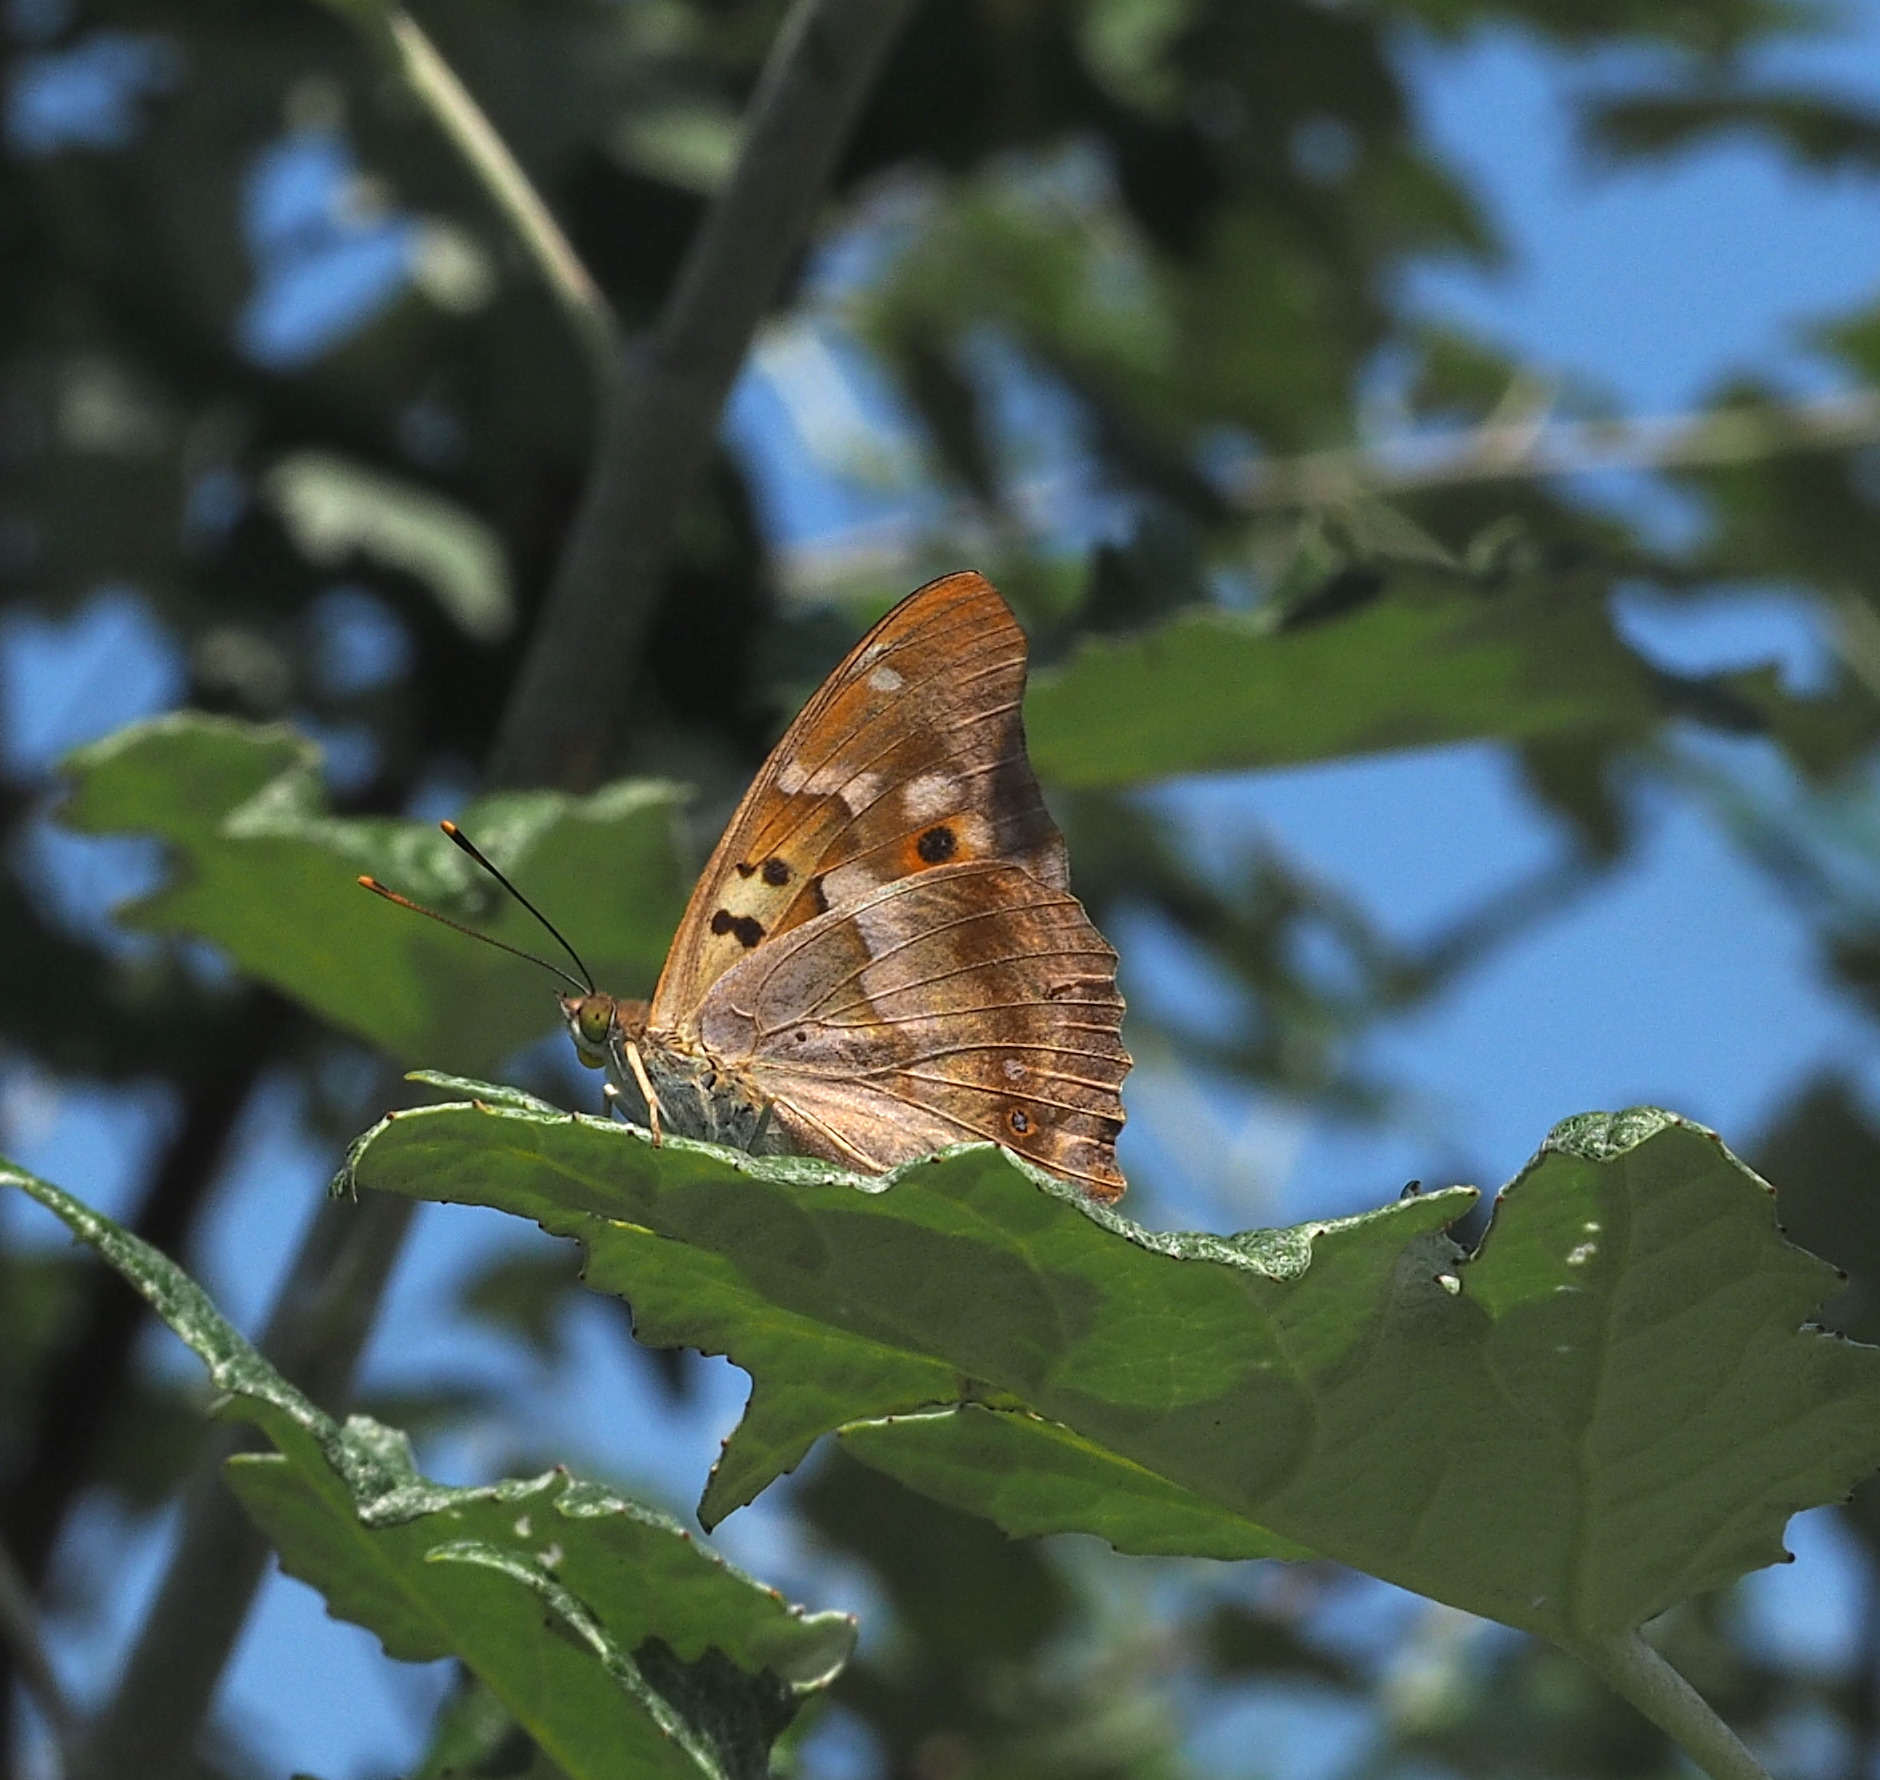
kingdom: Animalia
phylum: Arthropoda
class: Insecta
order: Lepidoptera
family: Nymphalidae
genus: Apatura
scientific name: Apatura ilia
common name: Lesser purple emperor
